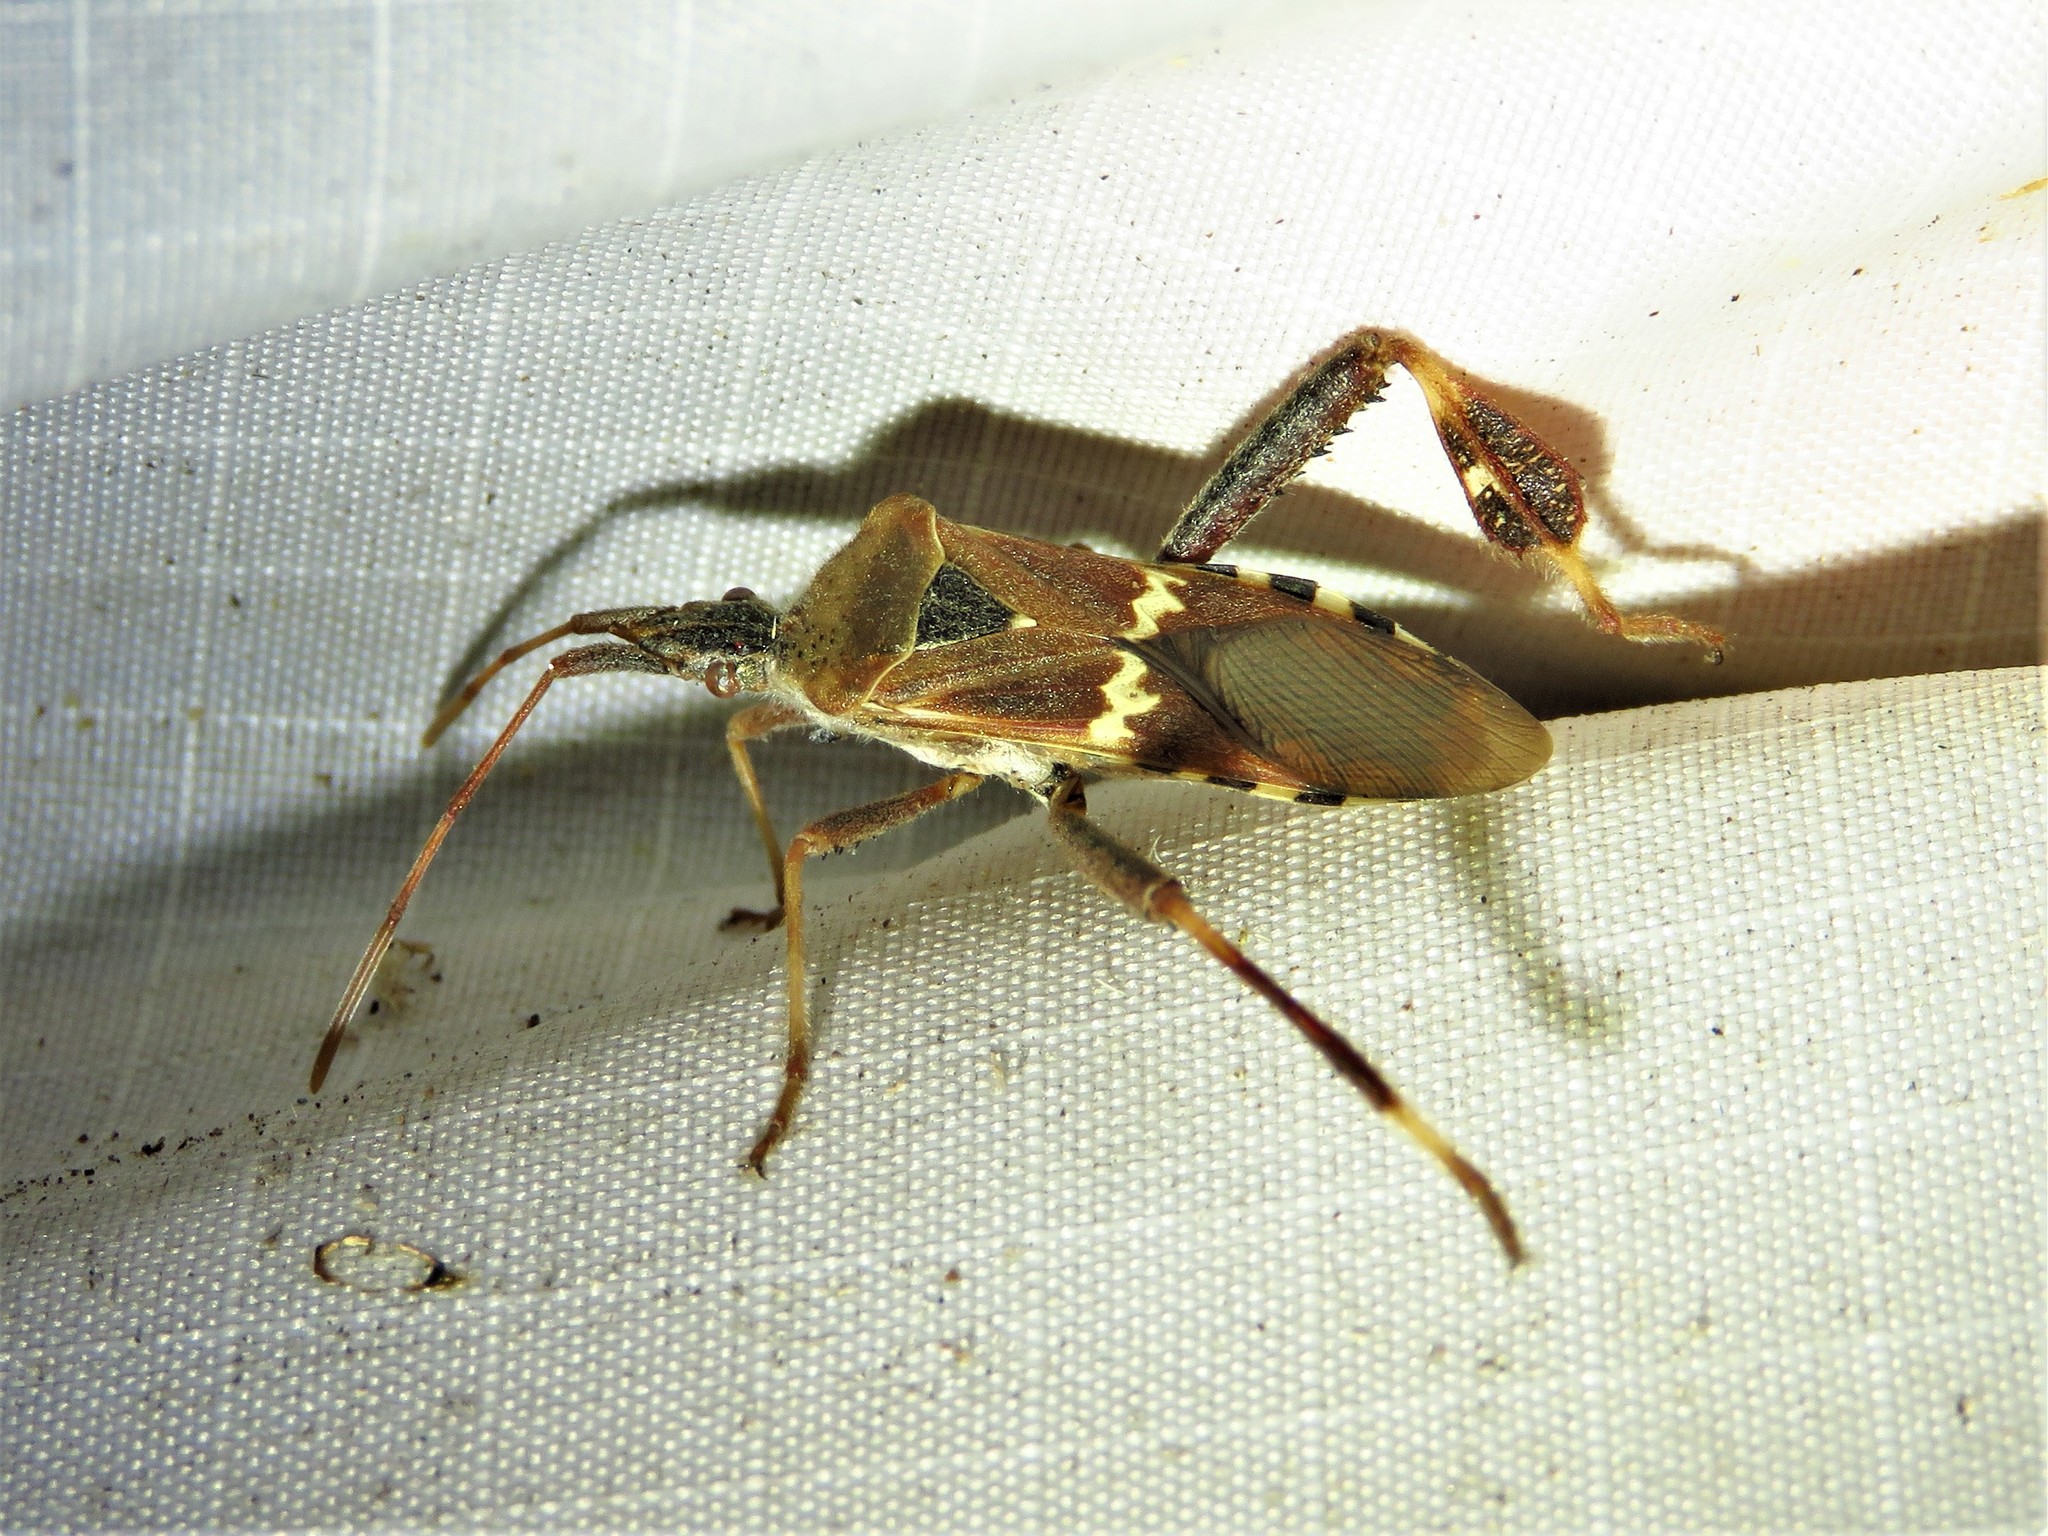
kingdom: Animalia
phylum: Arthropoda
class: Insecta
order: Hemiptera
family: Coreidae
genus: Leptoglossus
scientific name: Leptoglossus clypealis
